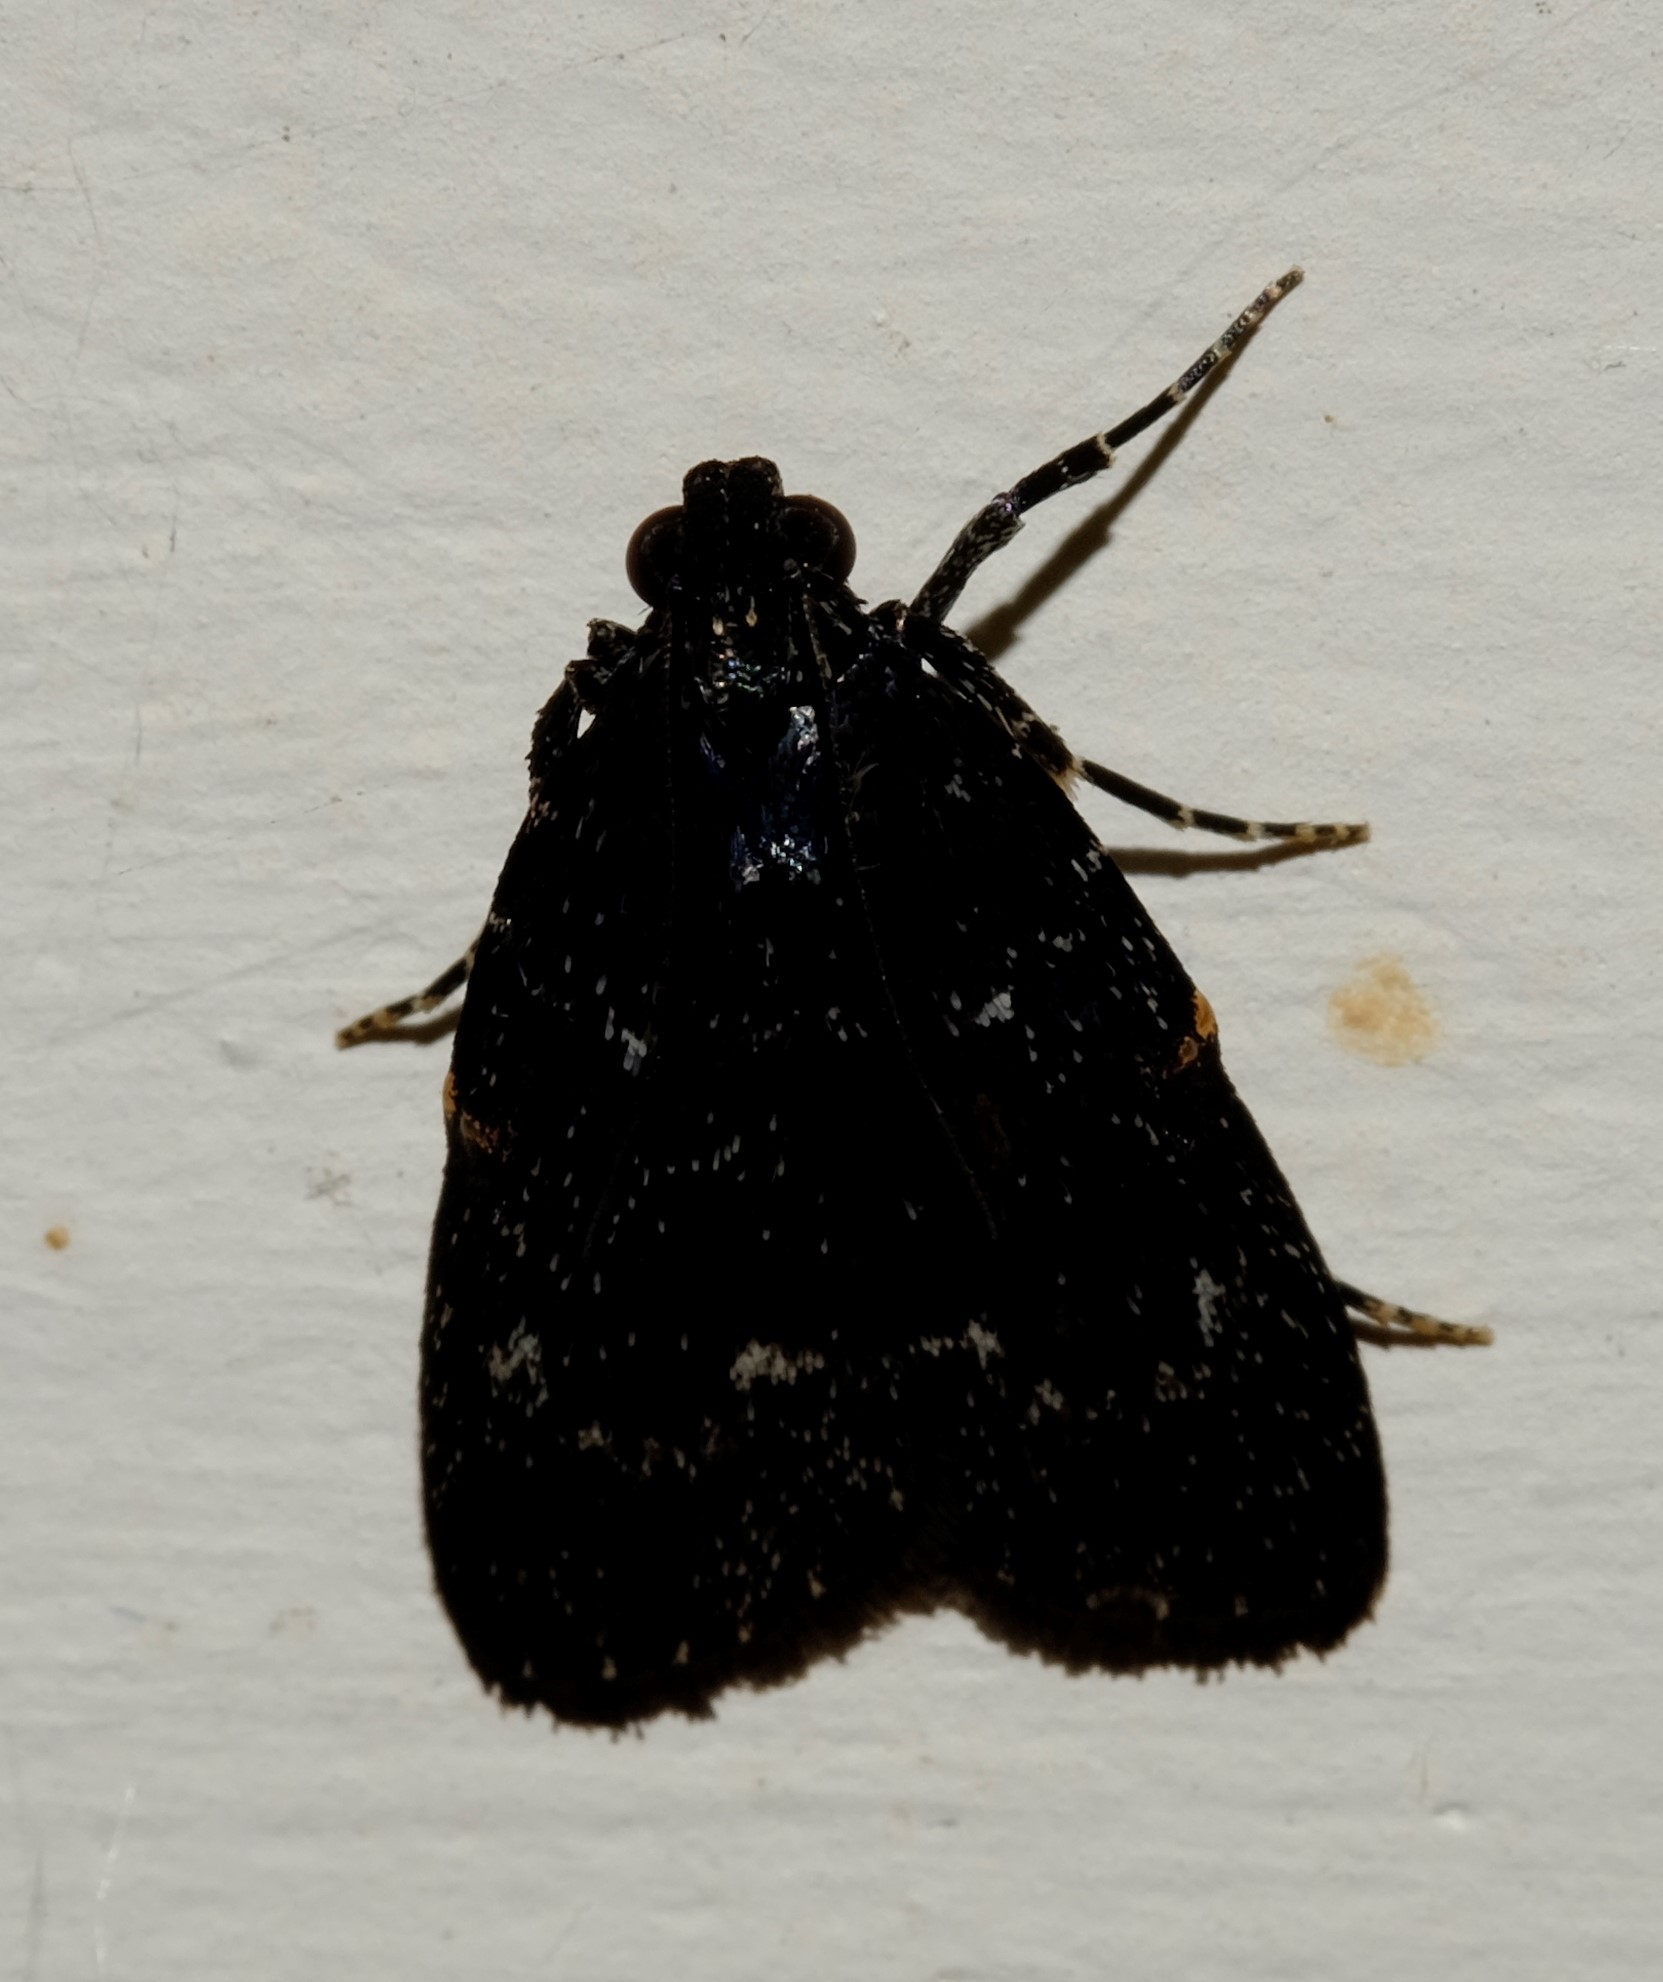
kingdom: Animalia
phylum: Arthropoda
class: Insecta
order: Lepidoptera
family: Pyralidae
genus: Stericta
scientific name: Stericta carbonalis
